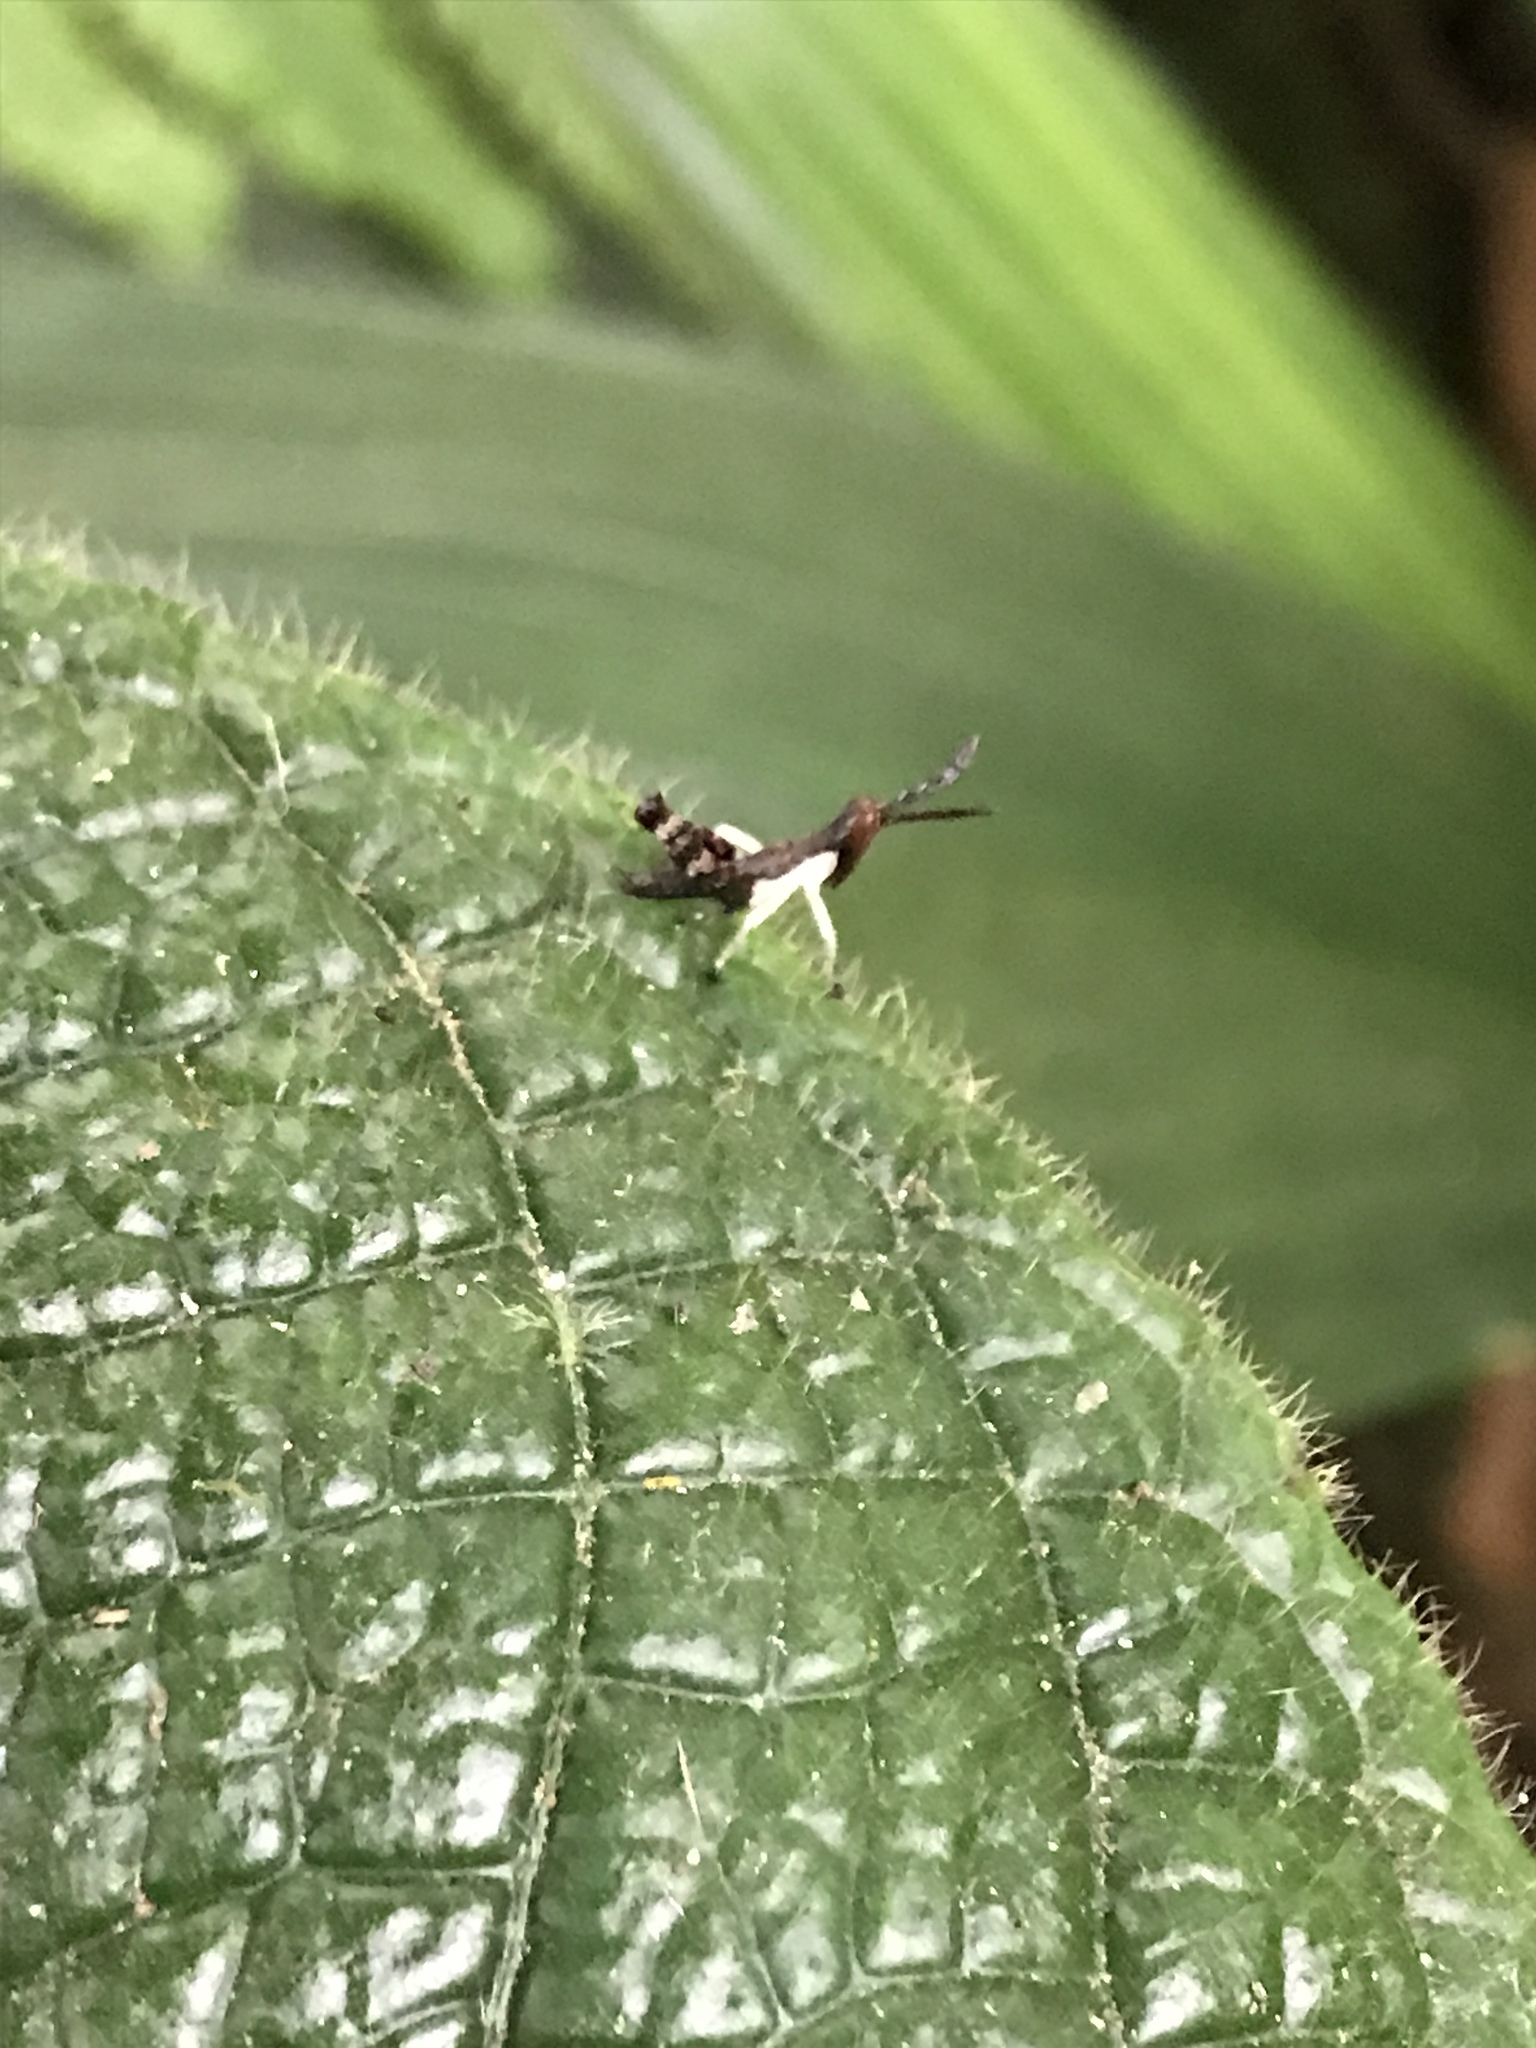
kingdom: Animalia
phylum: Arthropoda
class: Insecta
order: Orthoptera
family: Acrididae
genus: Guetaresia
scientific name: Guetaresia lankesteri
